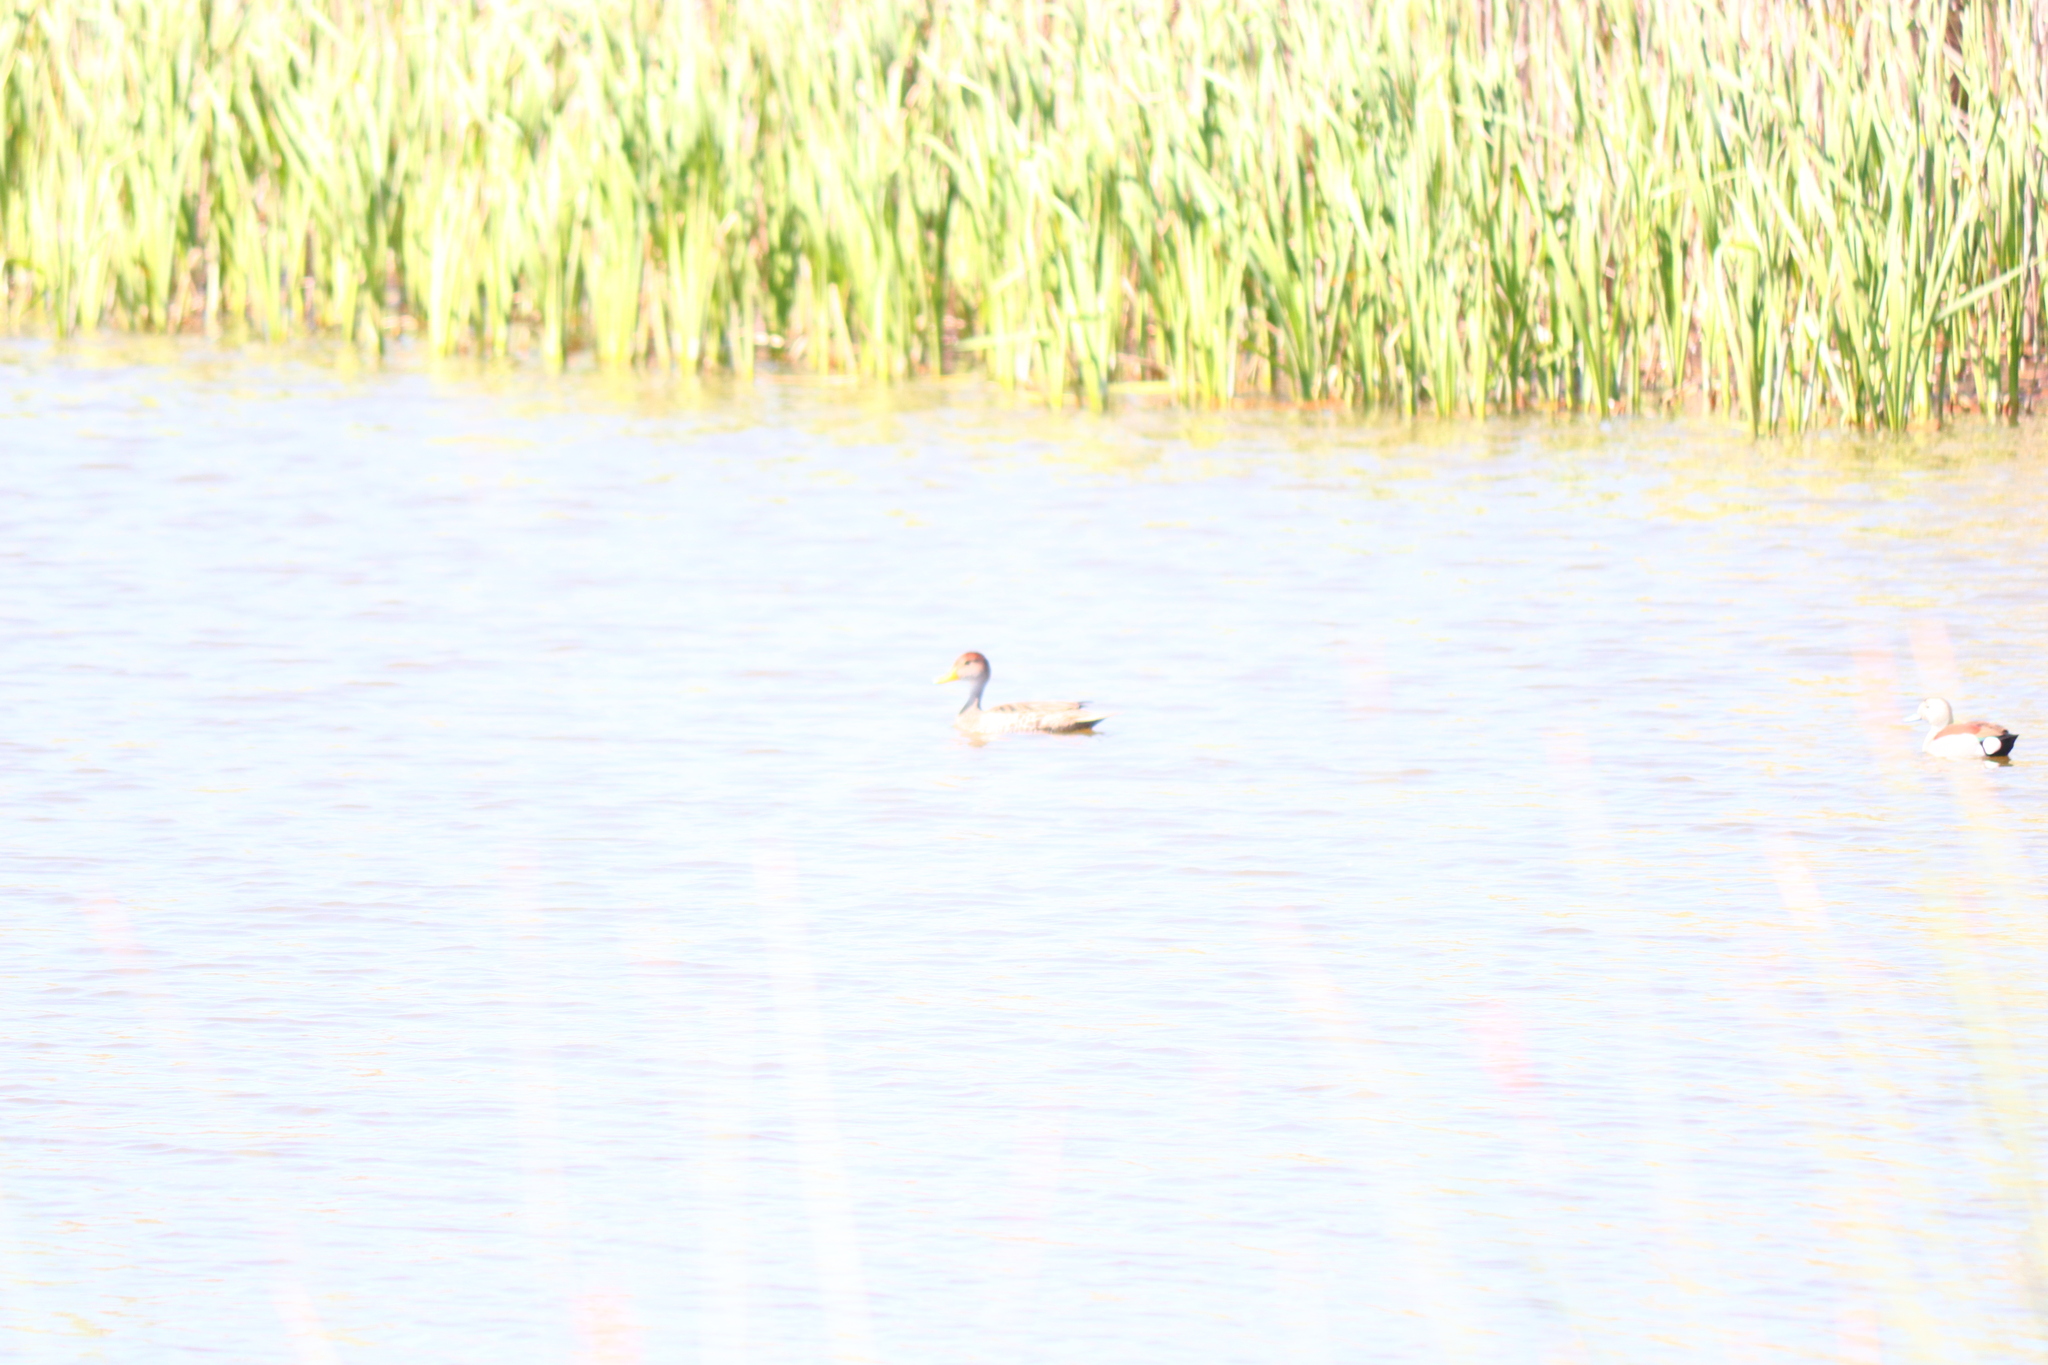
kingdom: Animalia
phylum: Chordata
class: Aves
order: Anseriformes
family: Anatidae
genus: Anas
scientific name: Anas georgica
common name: Yellow-billed pintail
